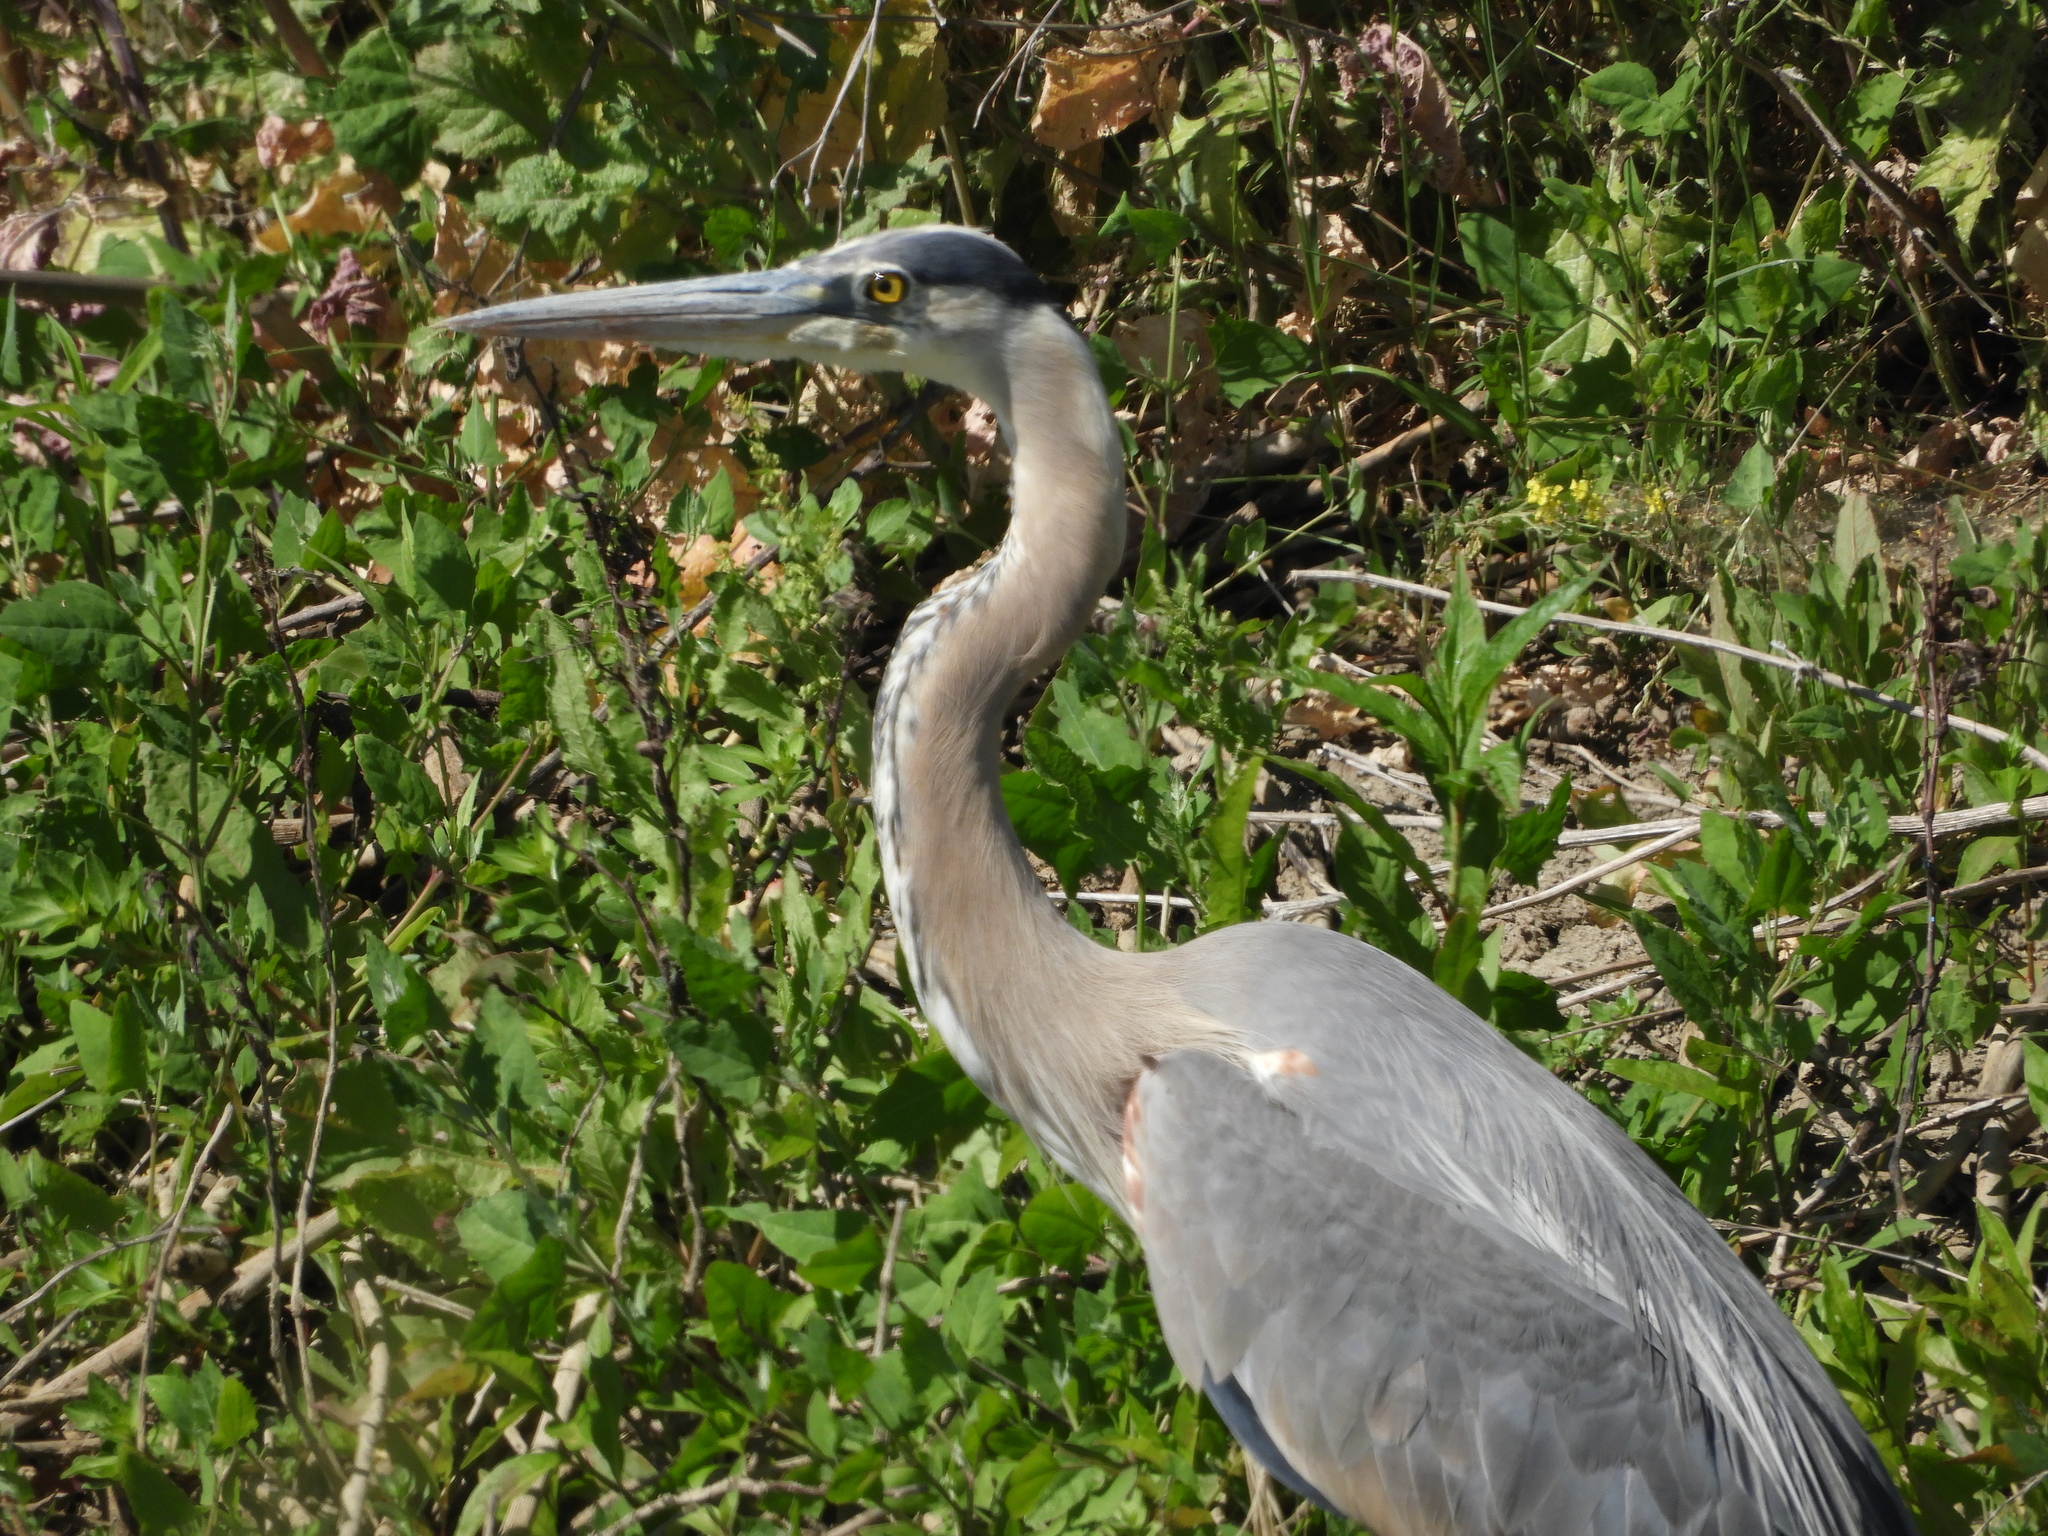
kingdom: Animalia
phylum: Chordata
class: Aves
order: Pelecaniformes
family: Ardeidae
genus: Ardea
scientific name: Ardea herodias
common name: Great blue heron
